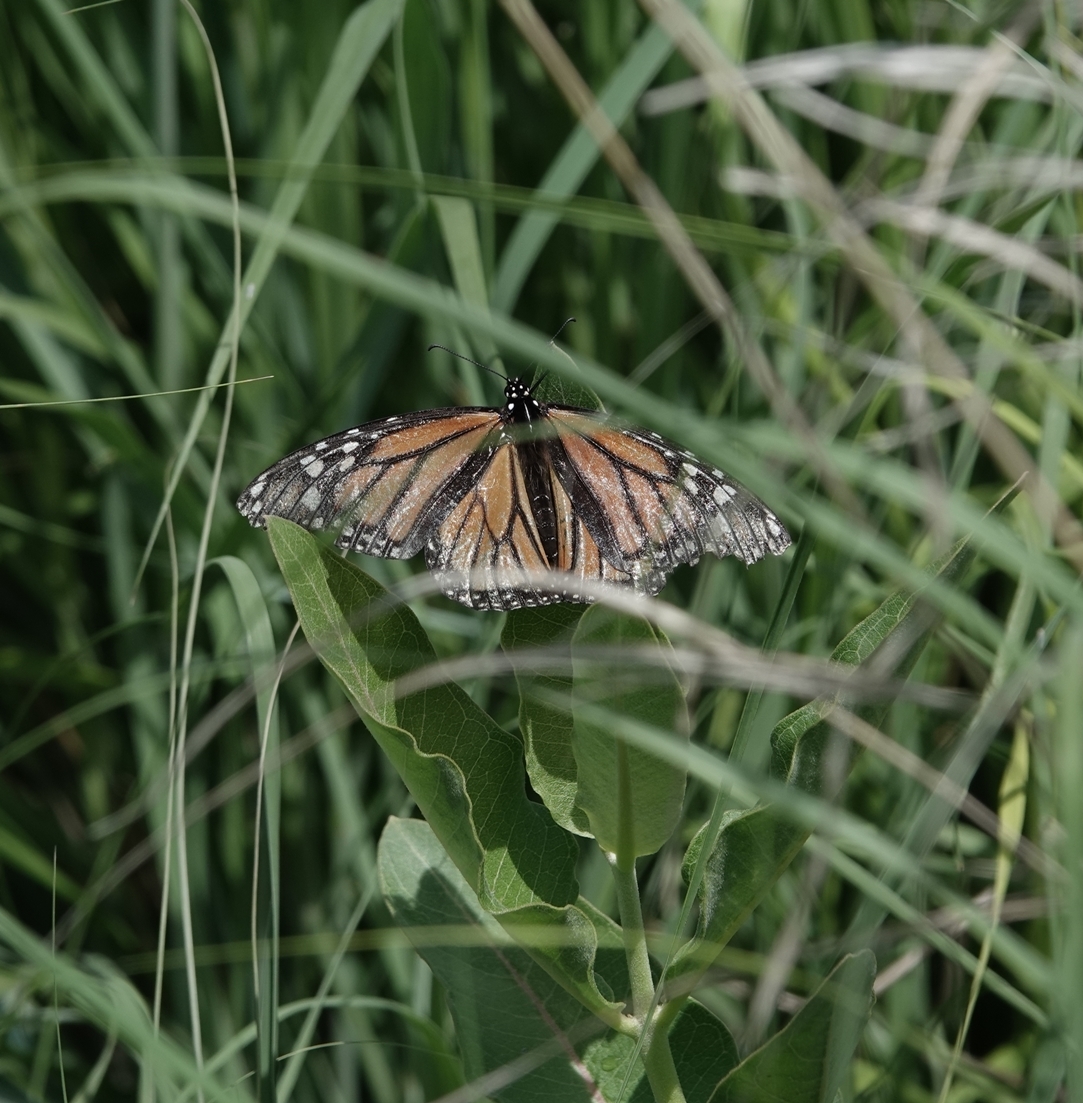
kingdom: Animalia
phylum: Arthropoda
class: Insecta
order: Lepidoptera
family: Nymphalidae
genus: Danaus
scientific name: Danaus plexippus
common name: Monarch
